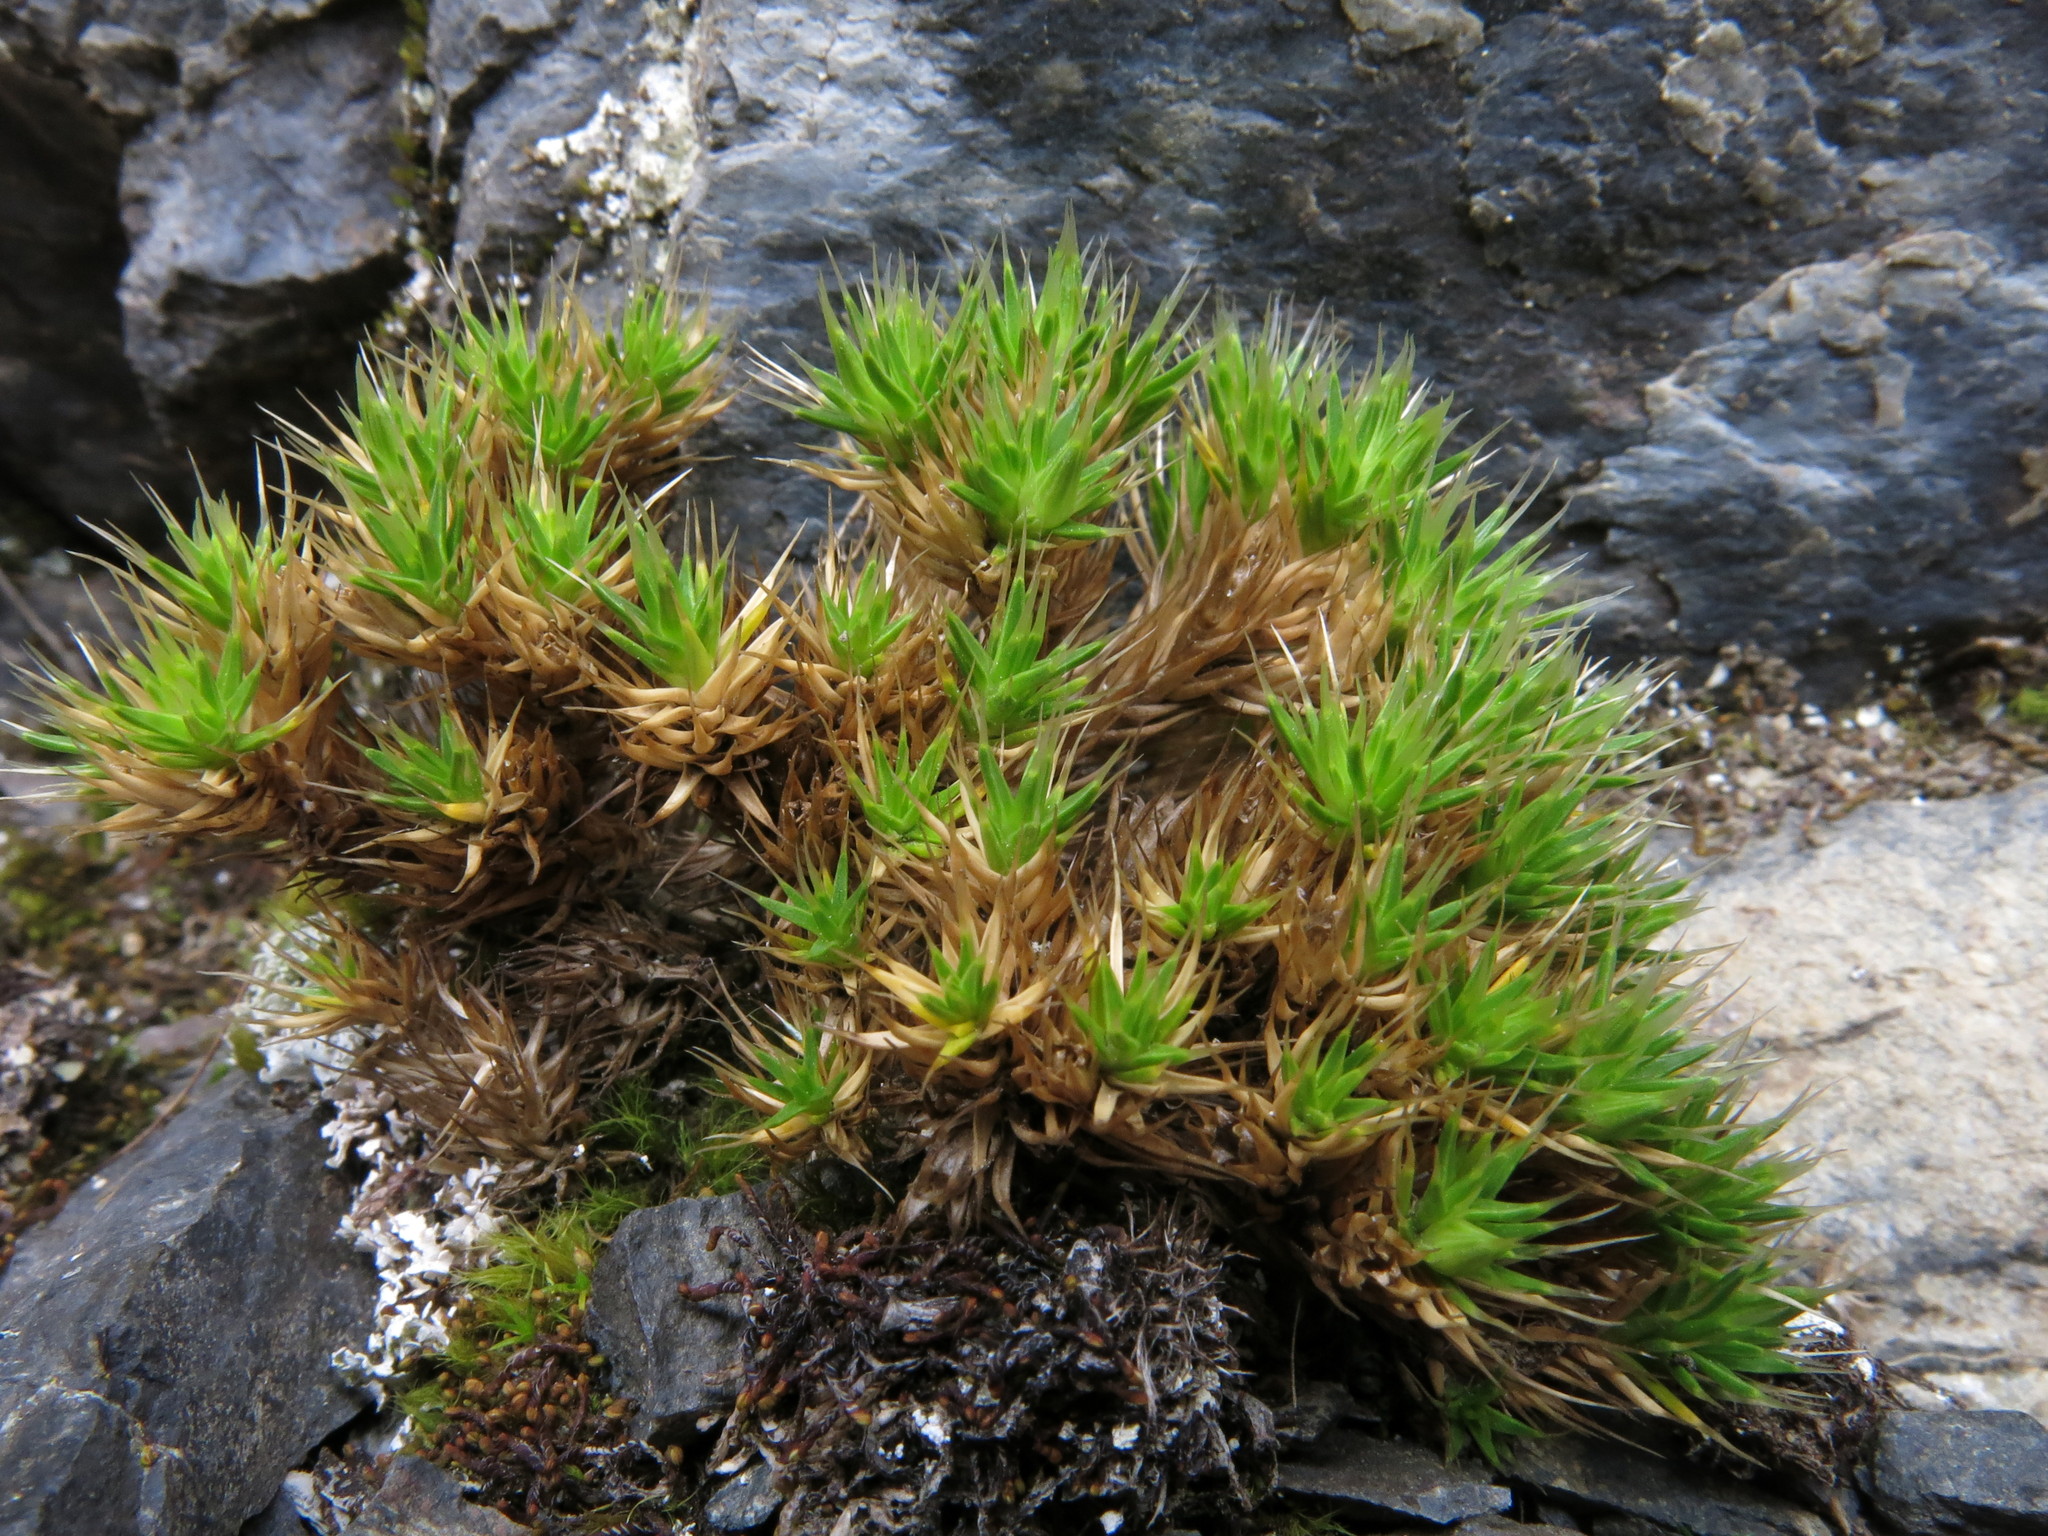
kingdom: Plantae
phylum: Tracheophyta
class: Magnoliopsida
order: Caryophyllales
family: Caryophyllaceae
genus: Colobanthus
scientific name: Colobanthus acicularis
